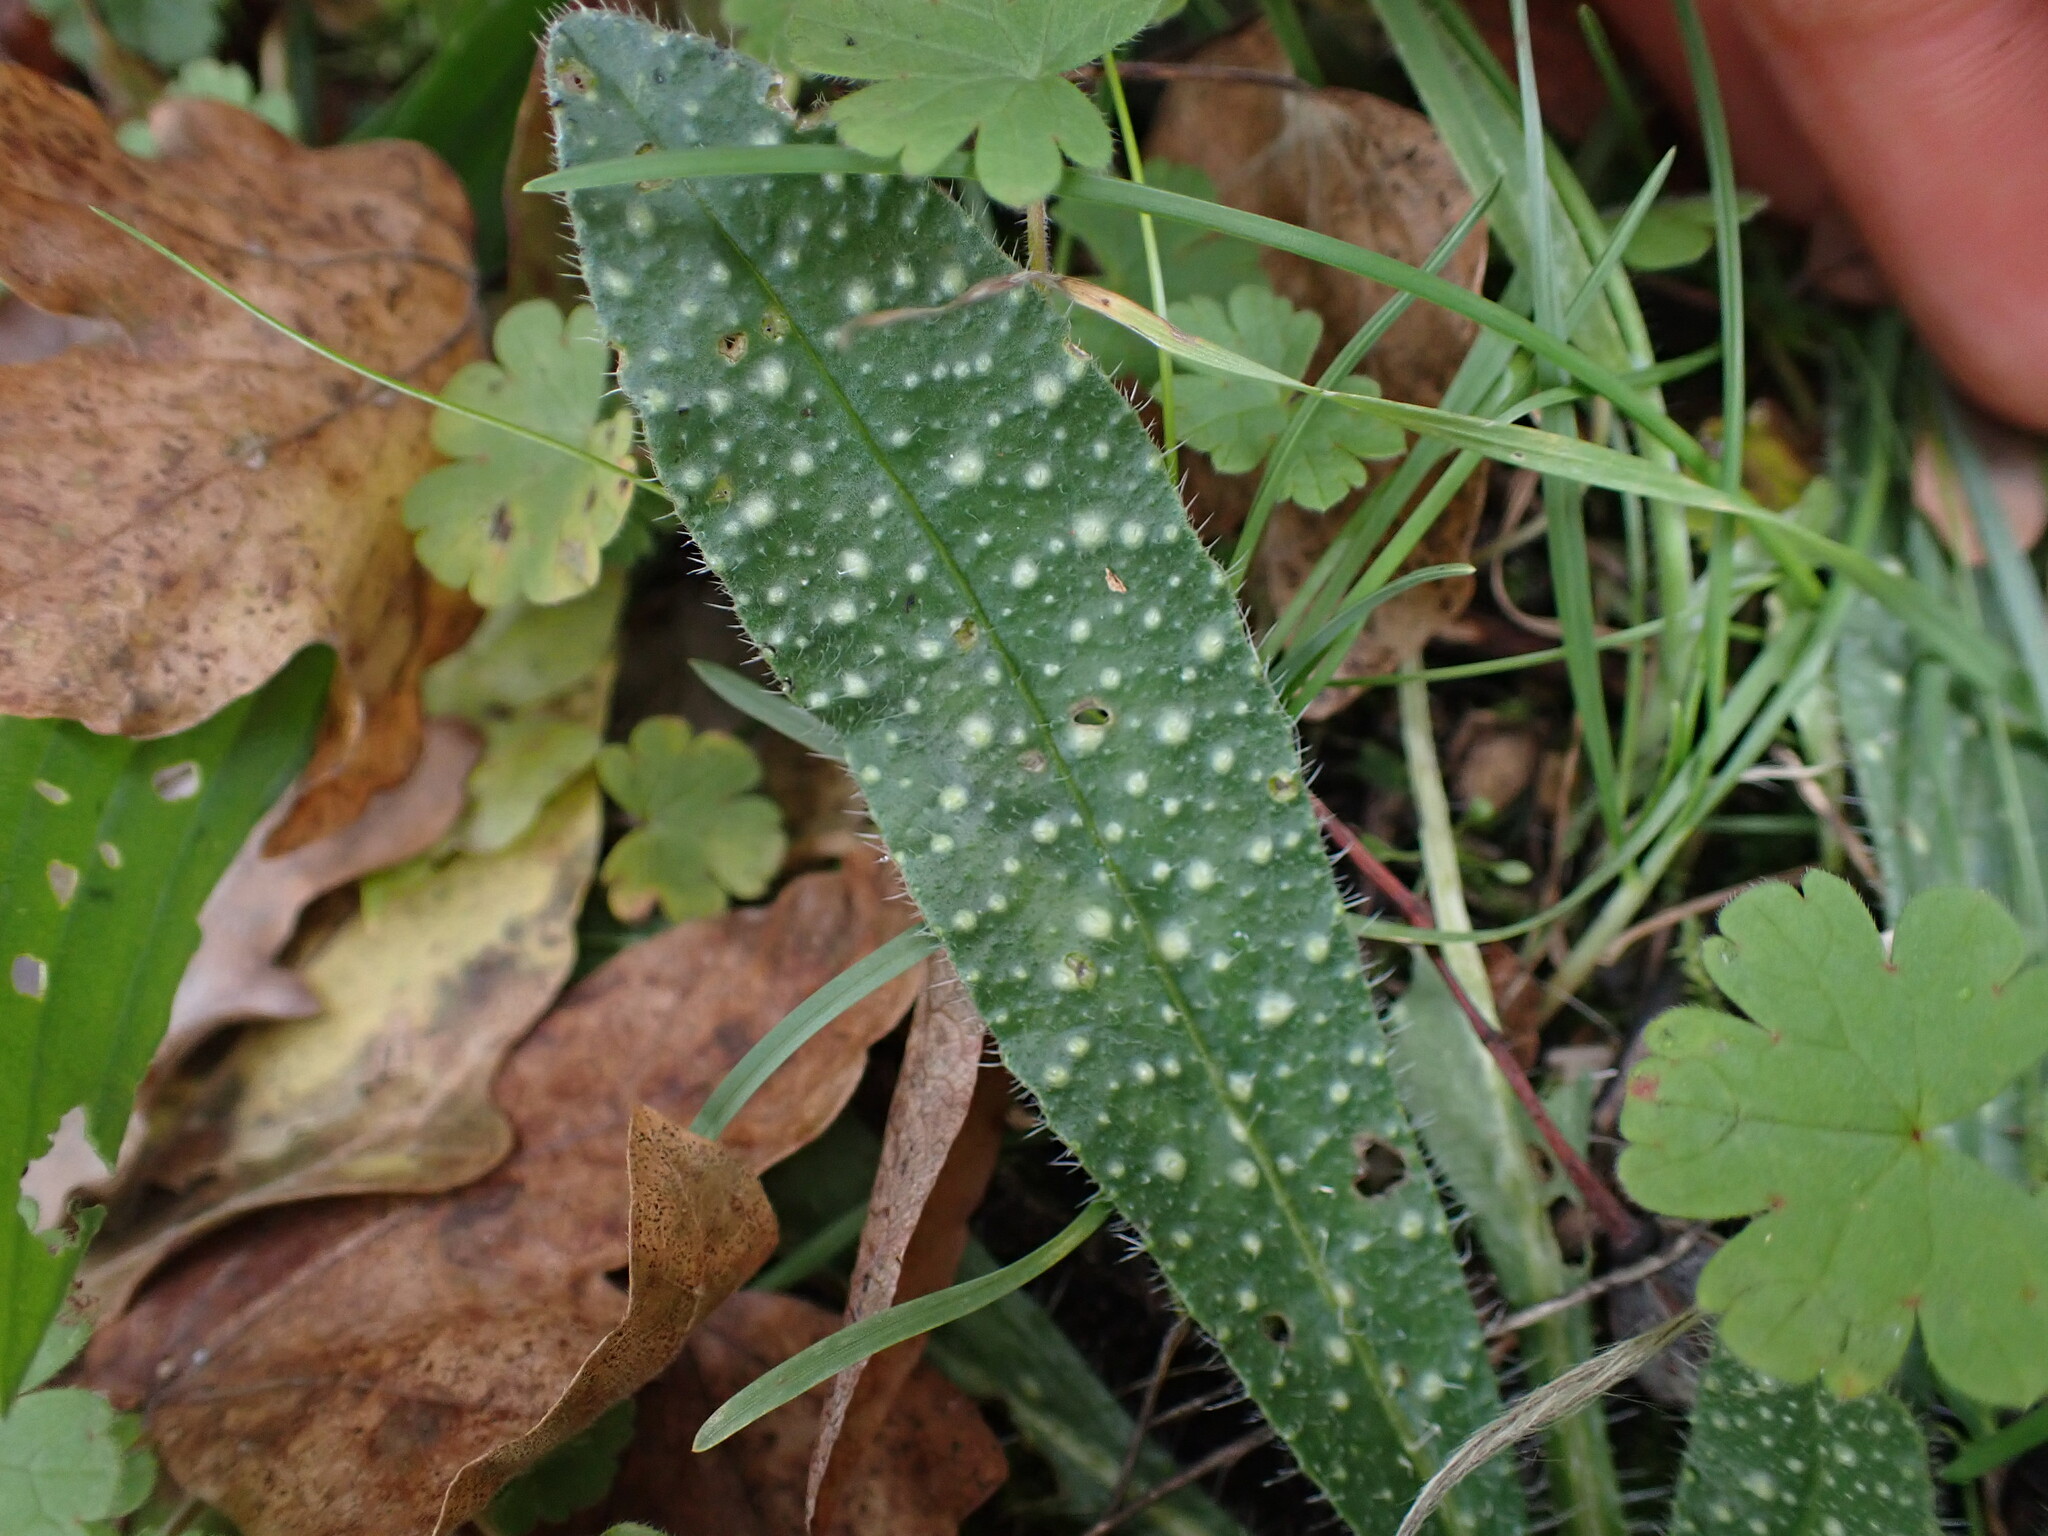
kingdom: Plantae
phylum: Tracheophyta
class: Magnoliopsida
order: Boraginales
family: Boraginaceae
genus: Echium
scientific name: Echium vulgare
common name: Common viper's bugloss
